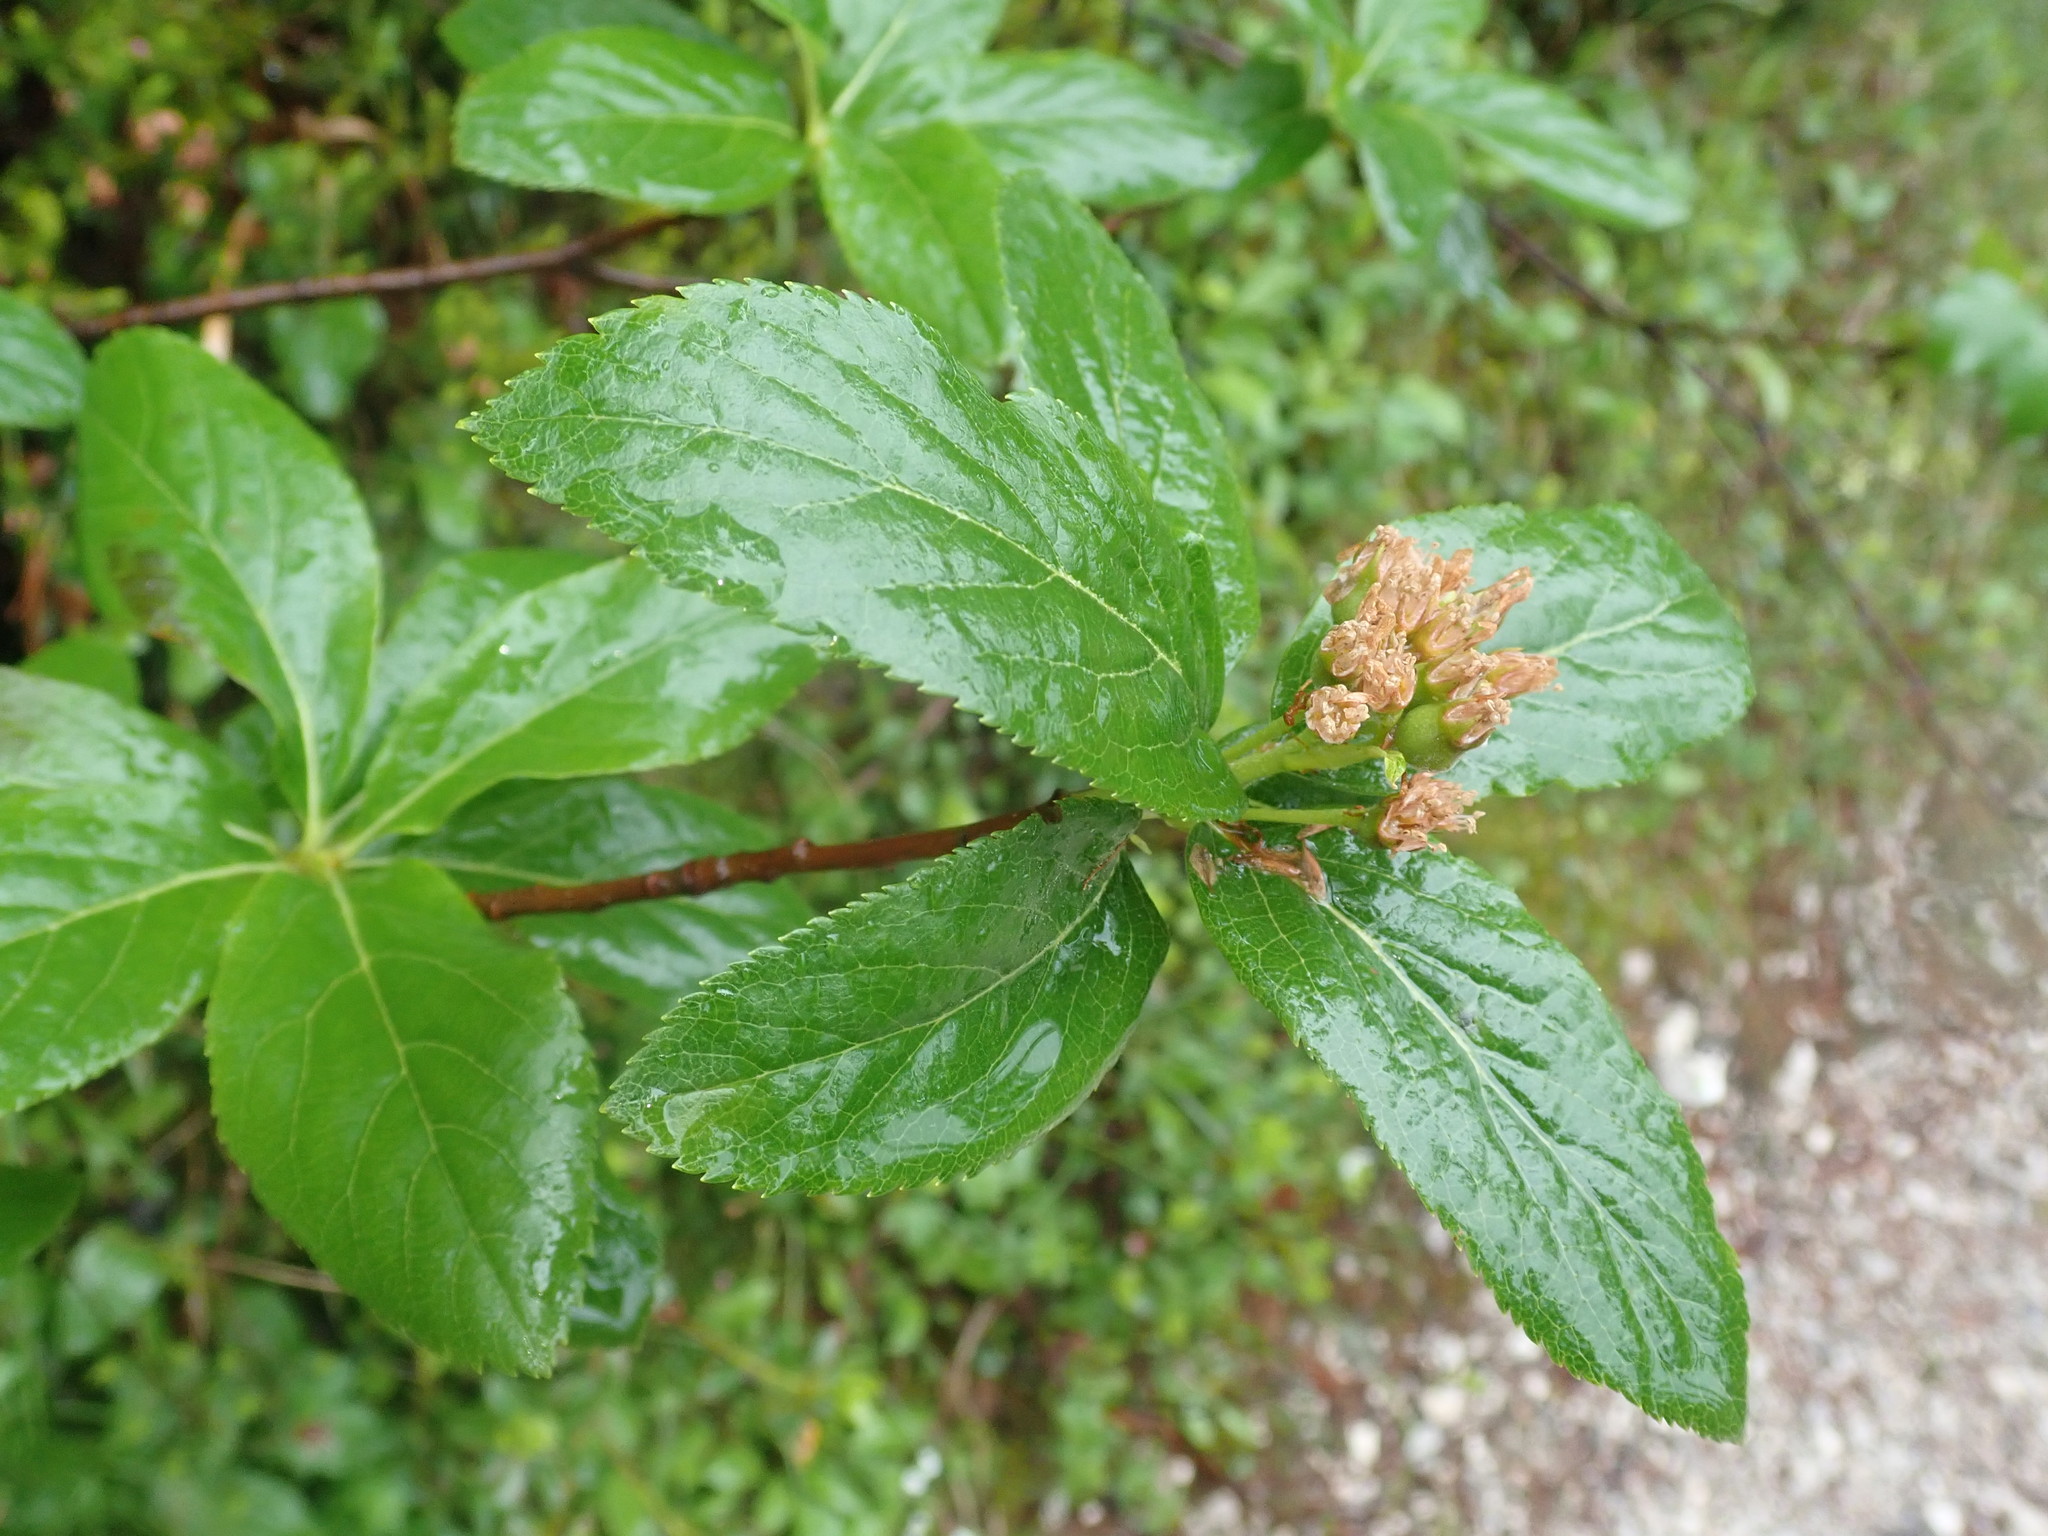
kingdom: Plantae
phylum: Tracheophyta
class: Magnoliopsida
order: Rosales
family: Rosaceae
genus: Chamaemespilus
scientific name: Chamaemespilus alpina
